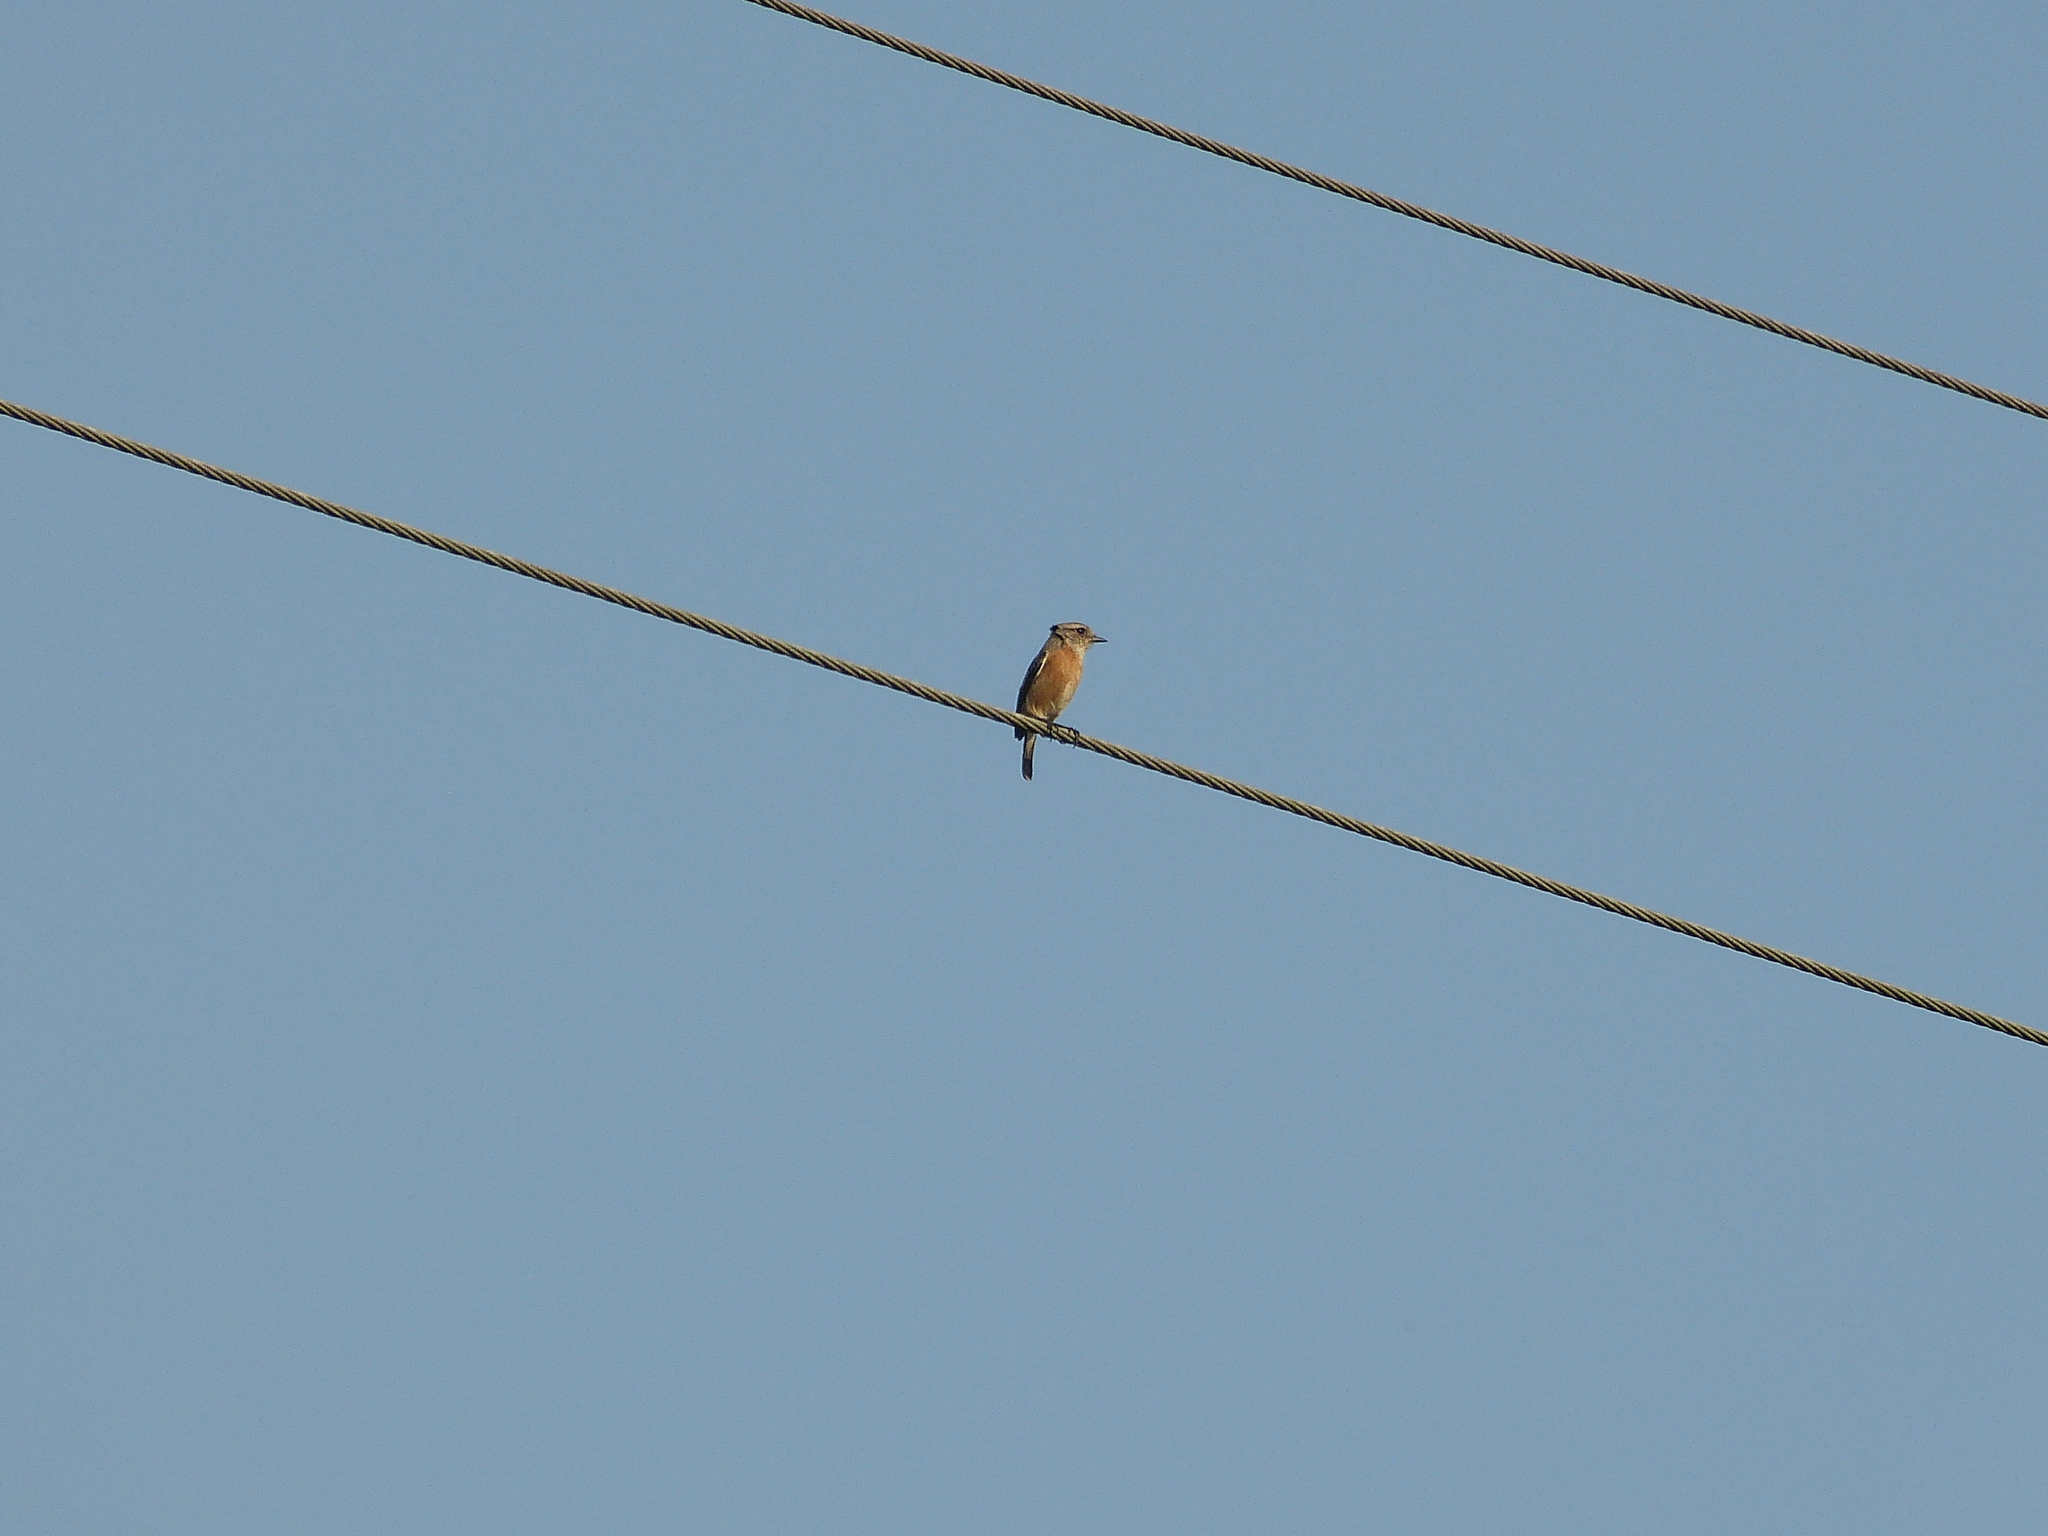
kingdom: Animalia
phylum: Chordata
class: Aves
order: Passeriformes
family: Muscicapidae
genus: Saxicola
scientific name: Saxicola torquatus
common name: African stonechat
